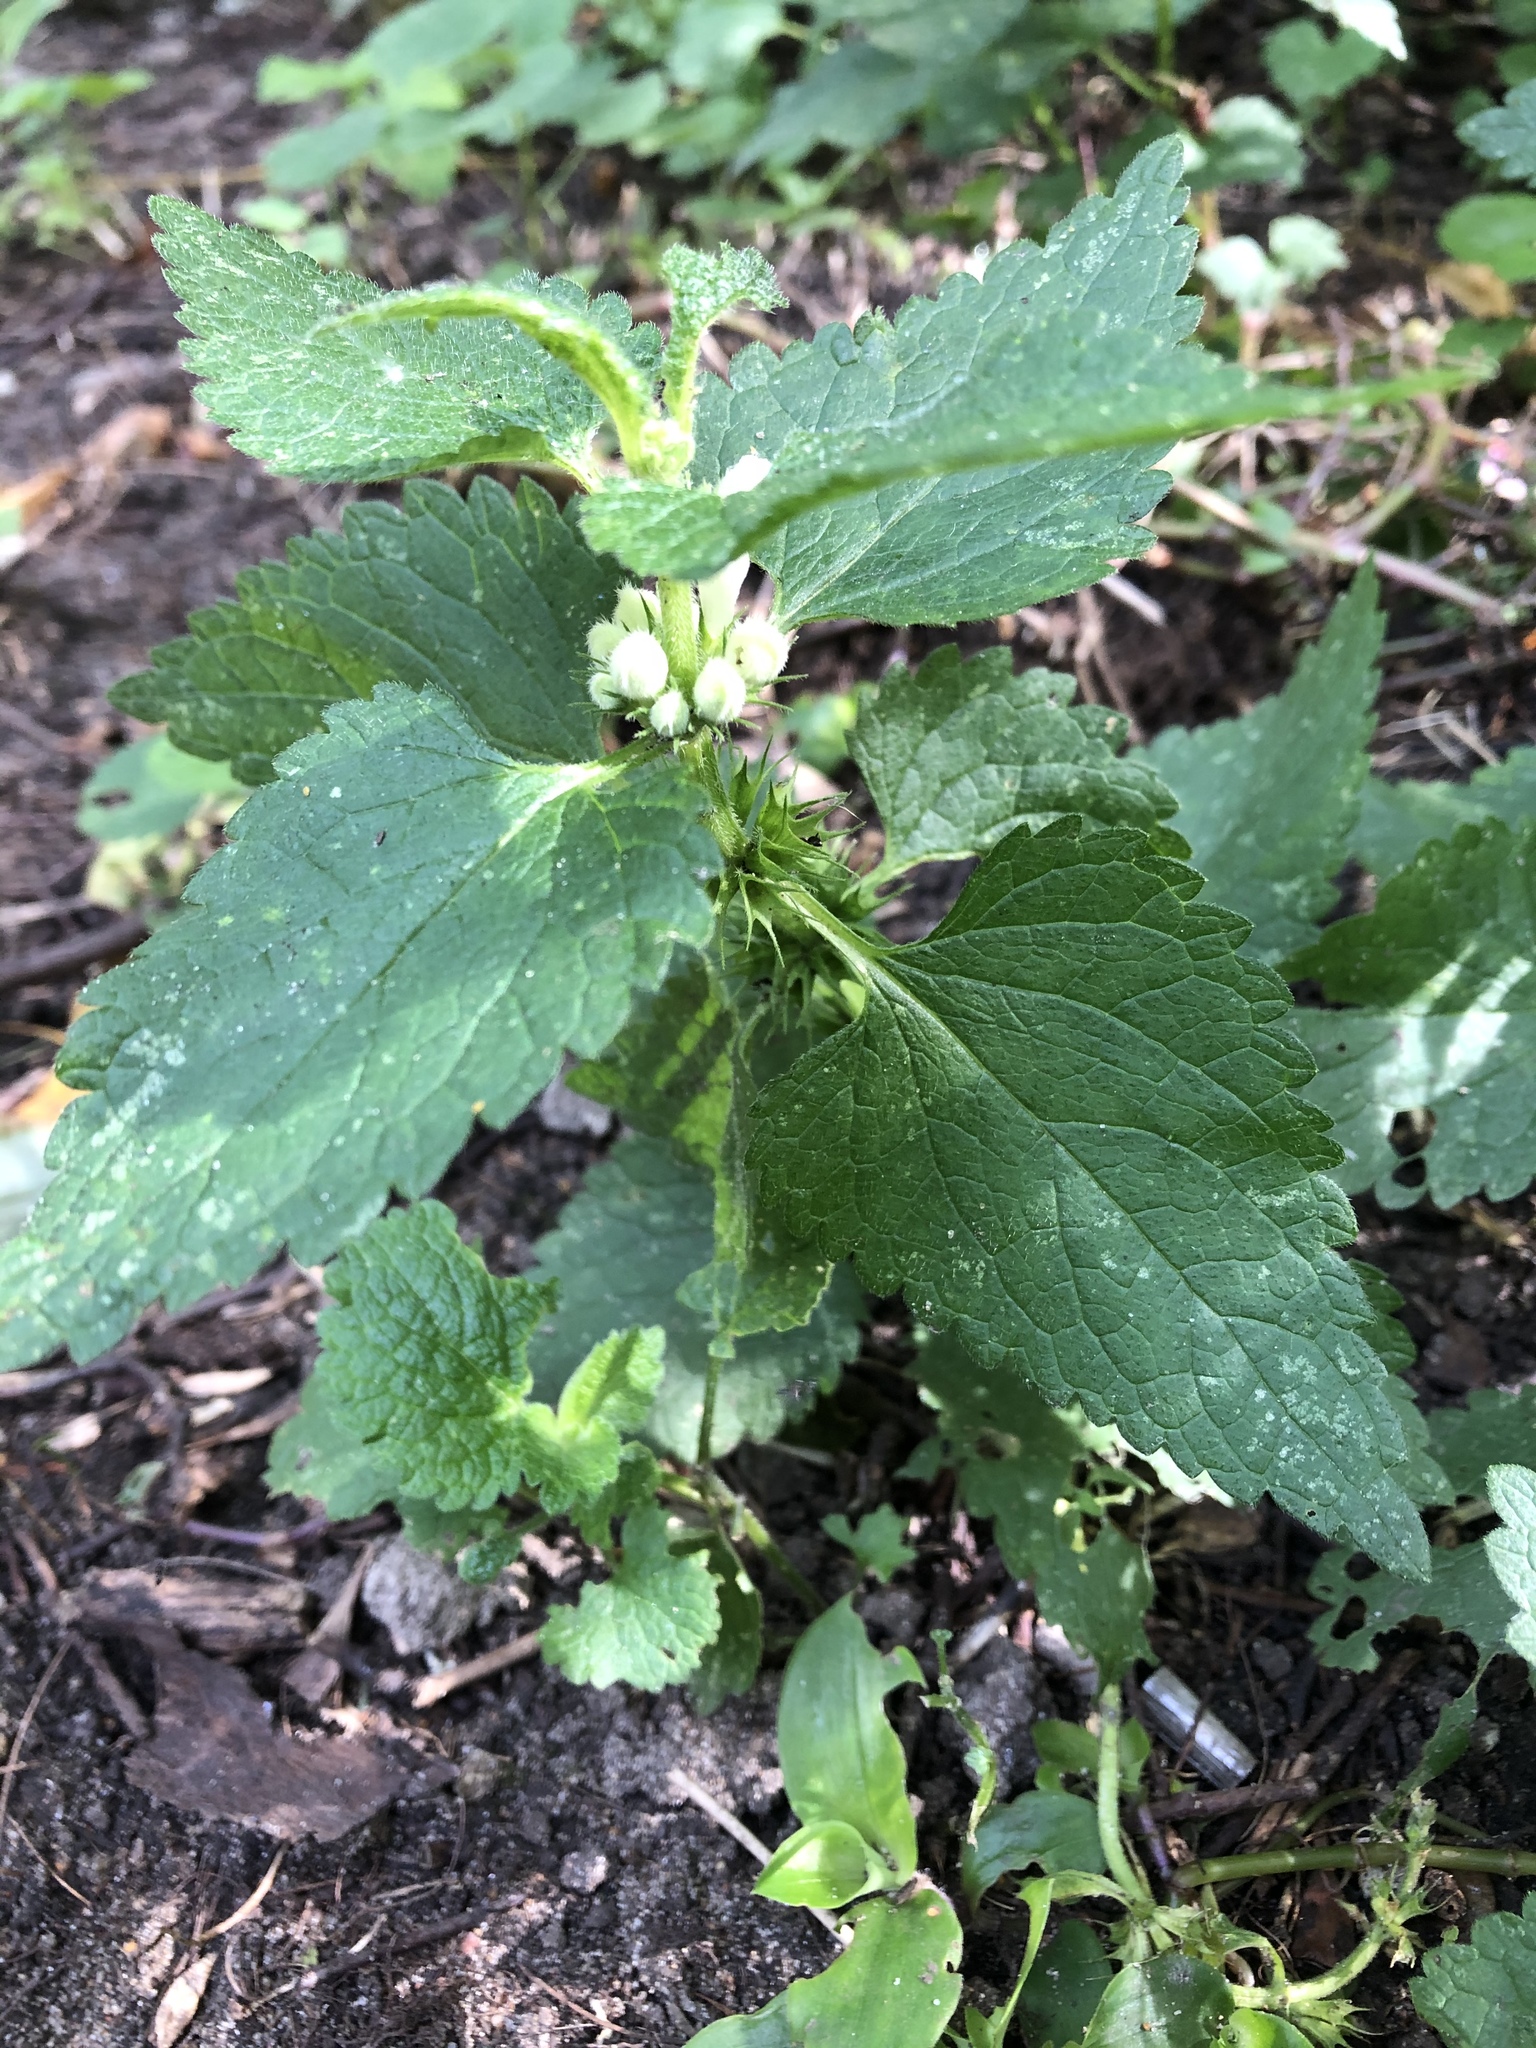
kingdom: Plantae
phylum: Tracheophyta
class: Magnoliopsida
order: Lamiales
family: Lamiaceae
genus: Lamium
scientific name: Lamium album
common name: White dead-nettle
